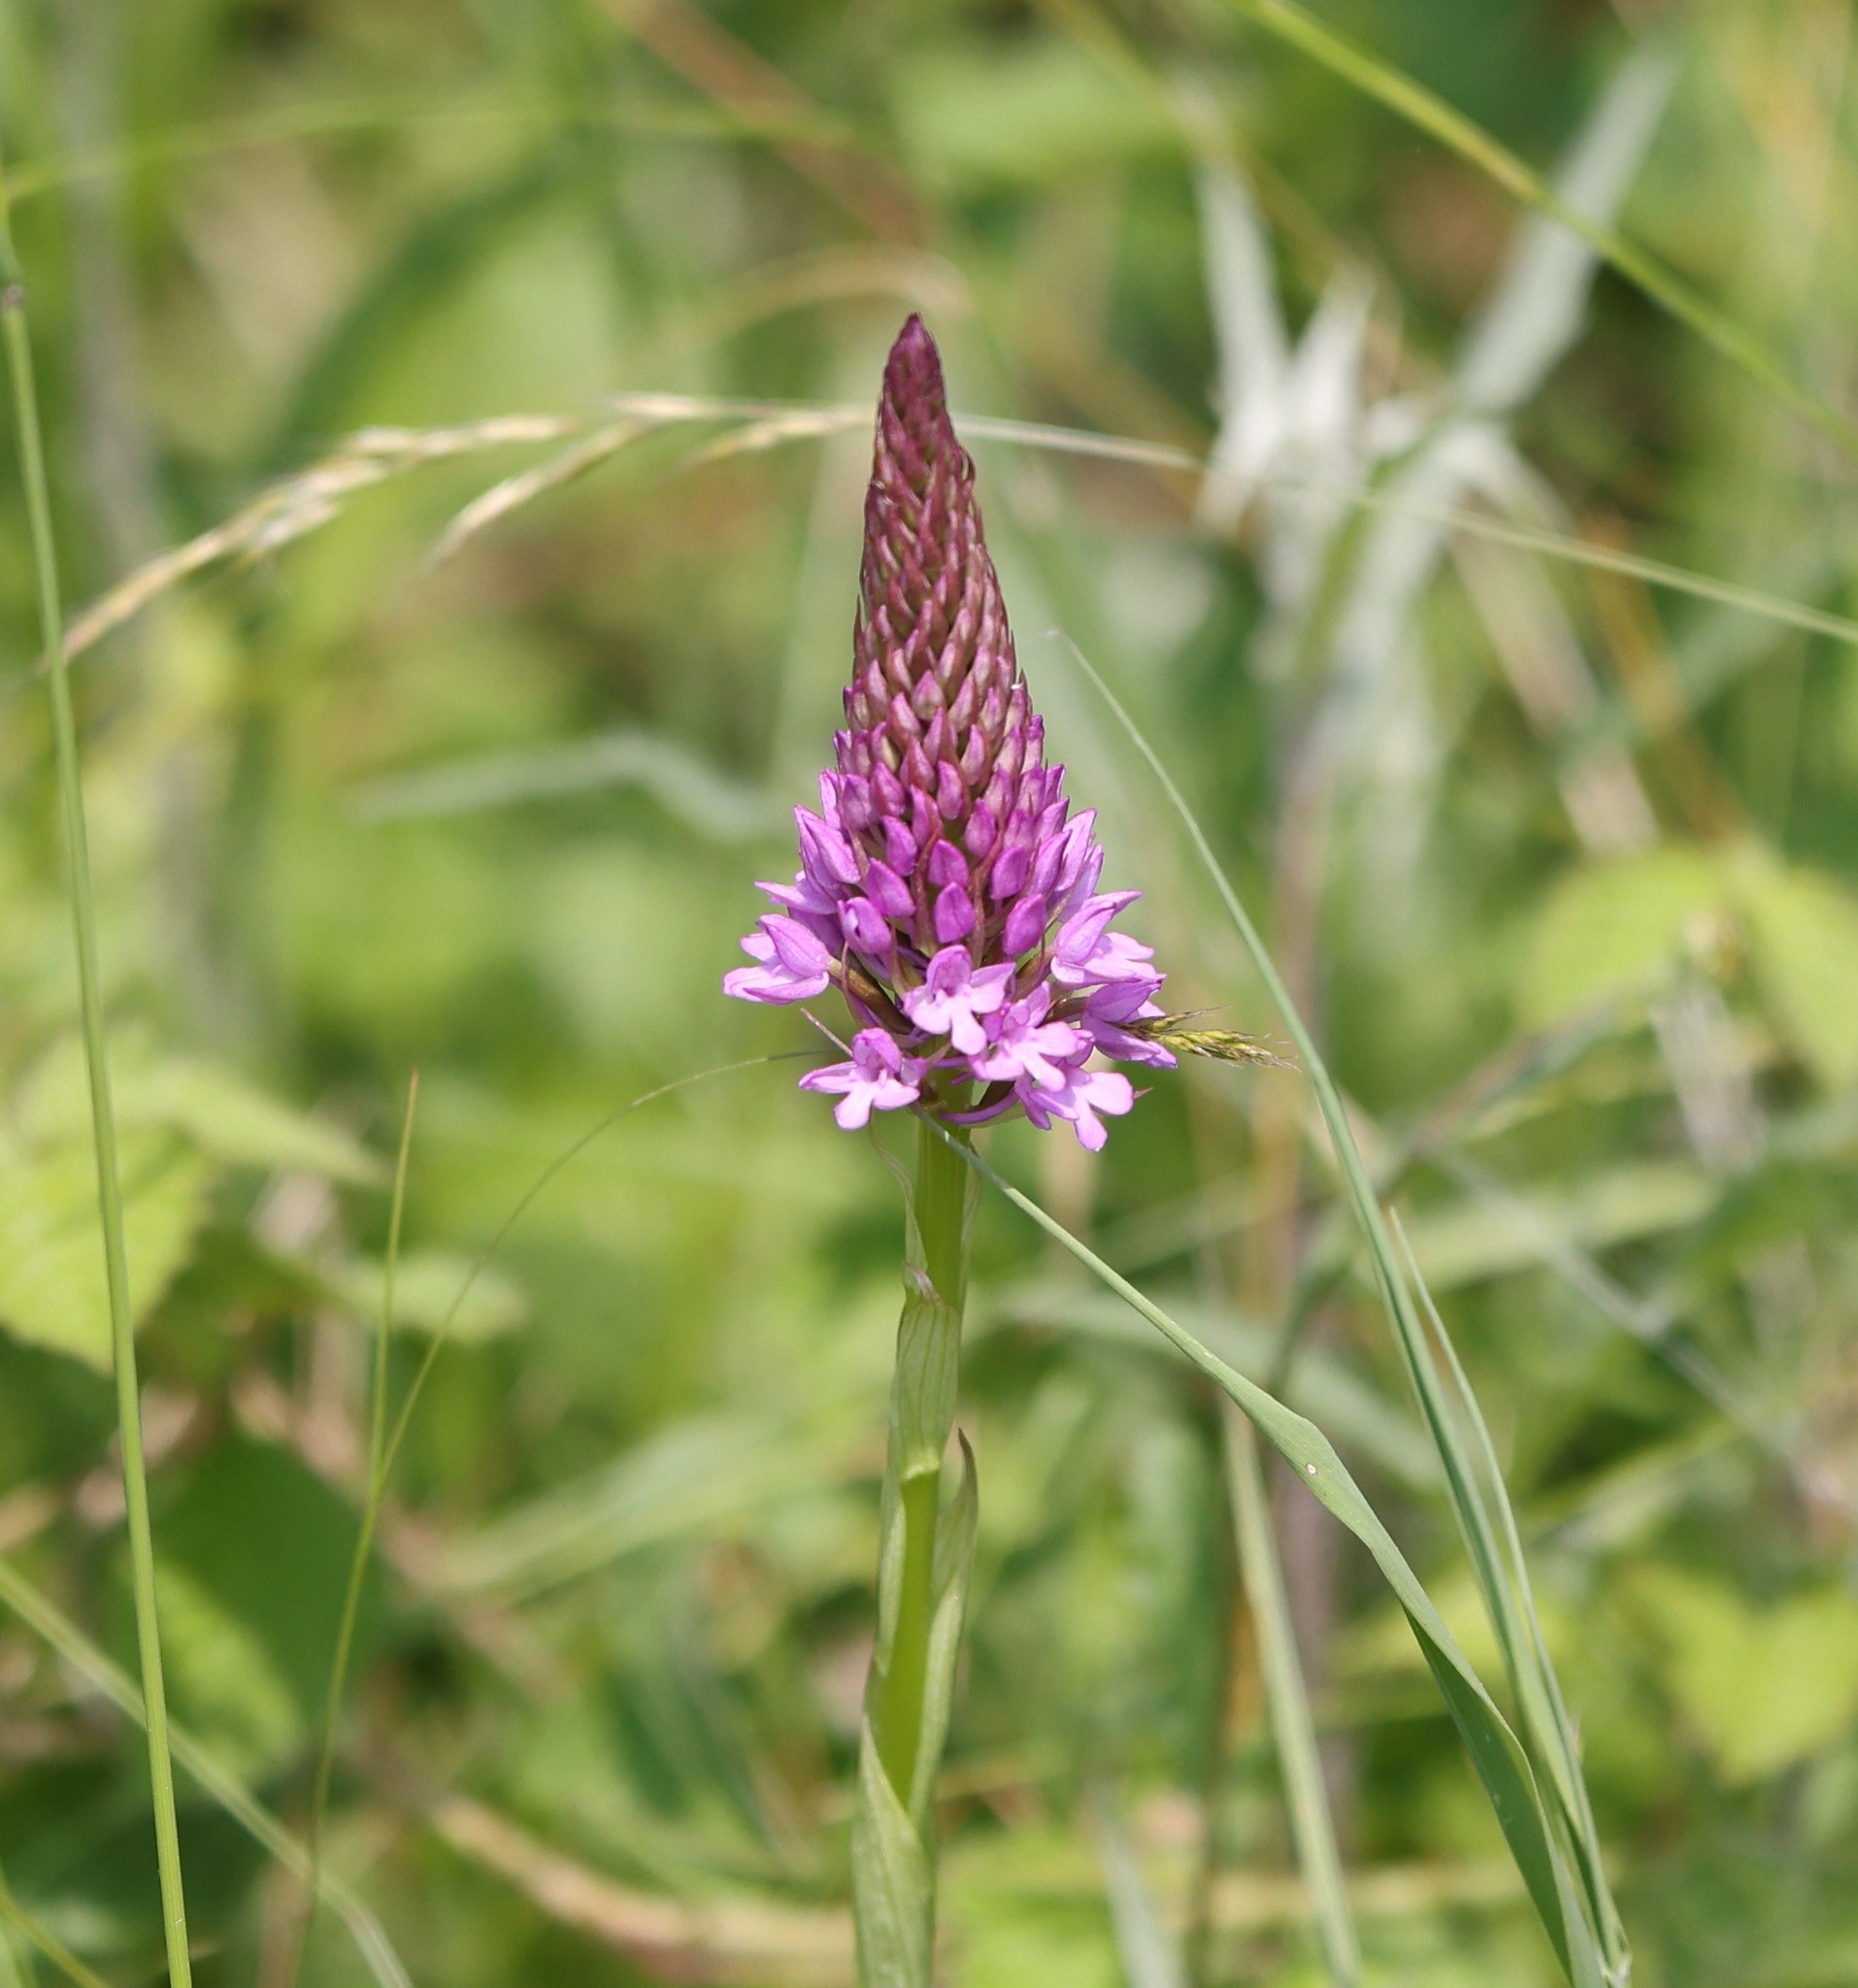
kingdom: Plantae
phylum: Tracheophyta
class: Liliopsida
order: Asparagales
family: Orchidaceae
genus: Anacamptis
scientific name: Anacamptis pyramidalis
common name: Pyramidal orchid
